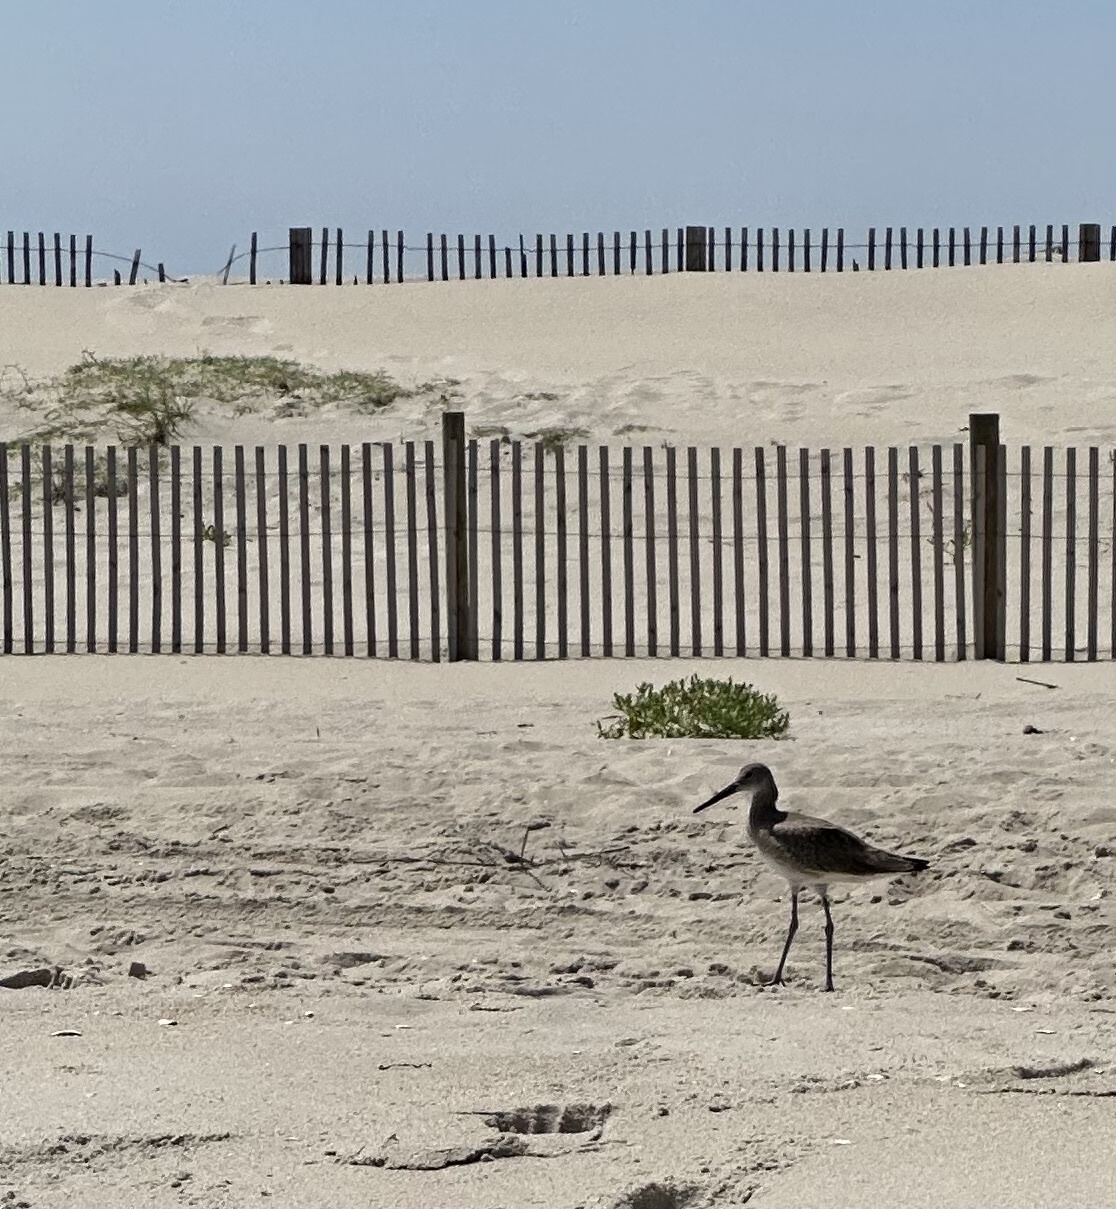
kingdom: Animalia
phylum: Chordata
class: Aves
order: Charadriiformes
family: Scolopacidae
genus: Tringa
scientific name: Tringa semipalmata
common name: Willet
